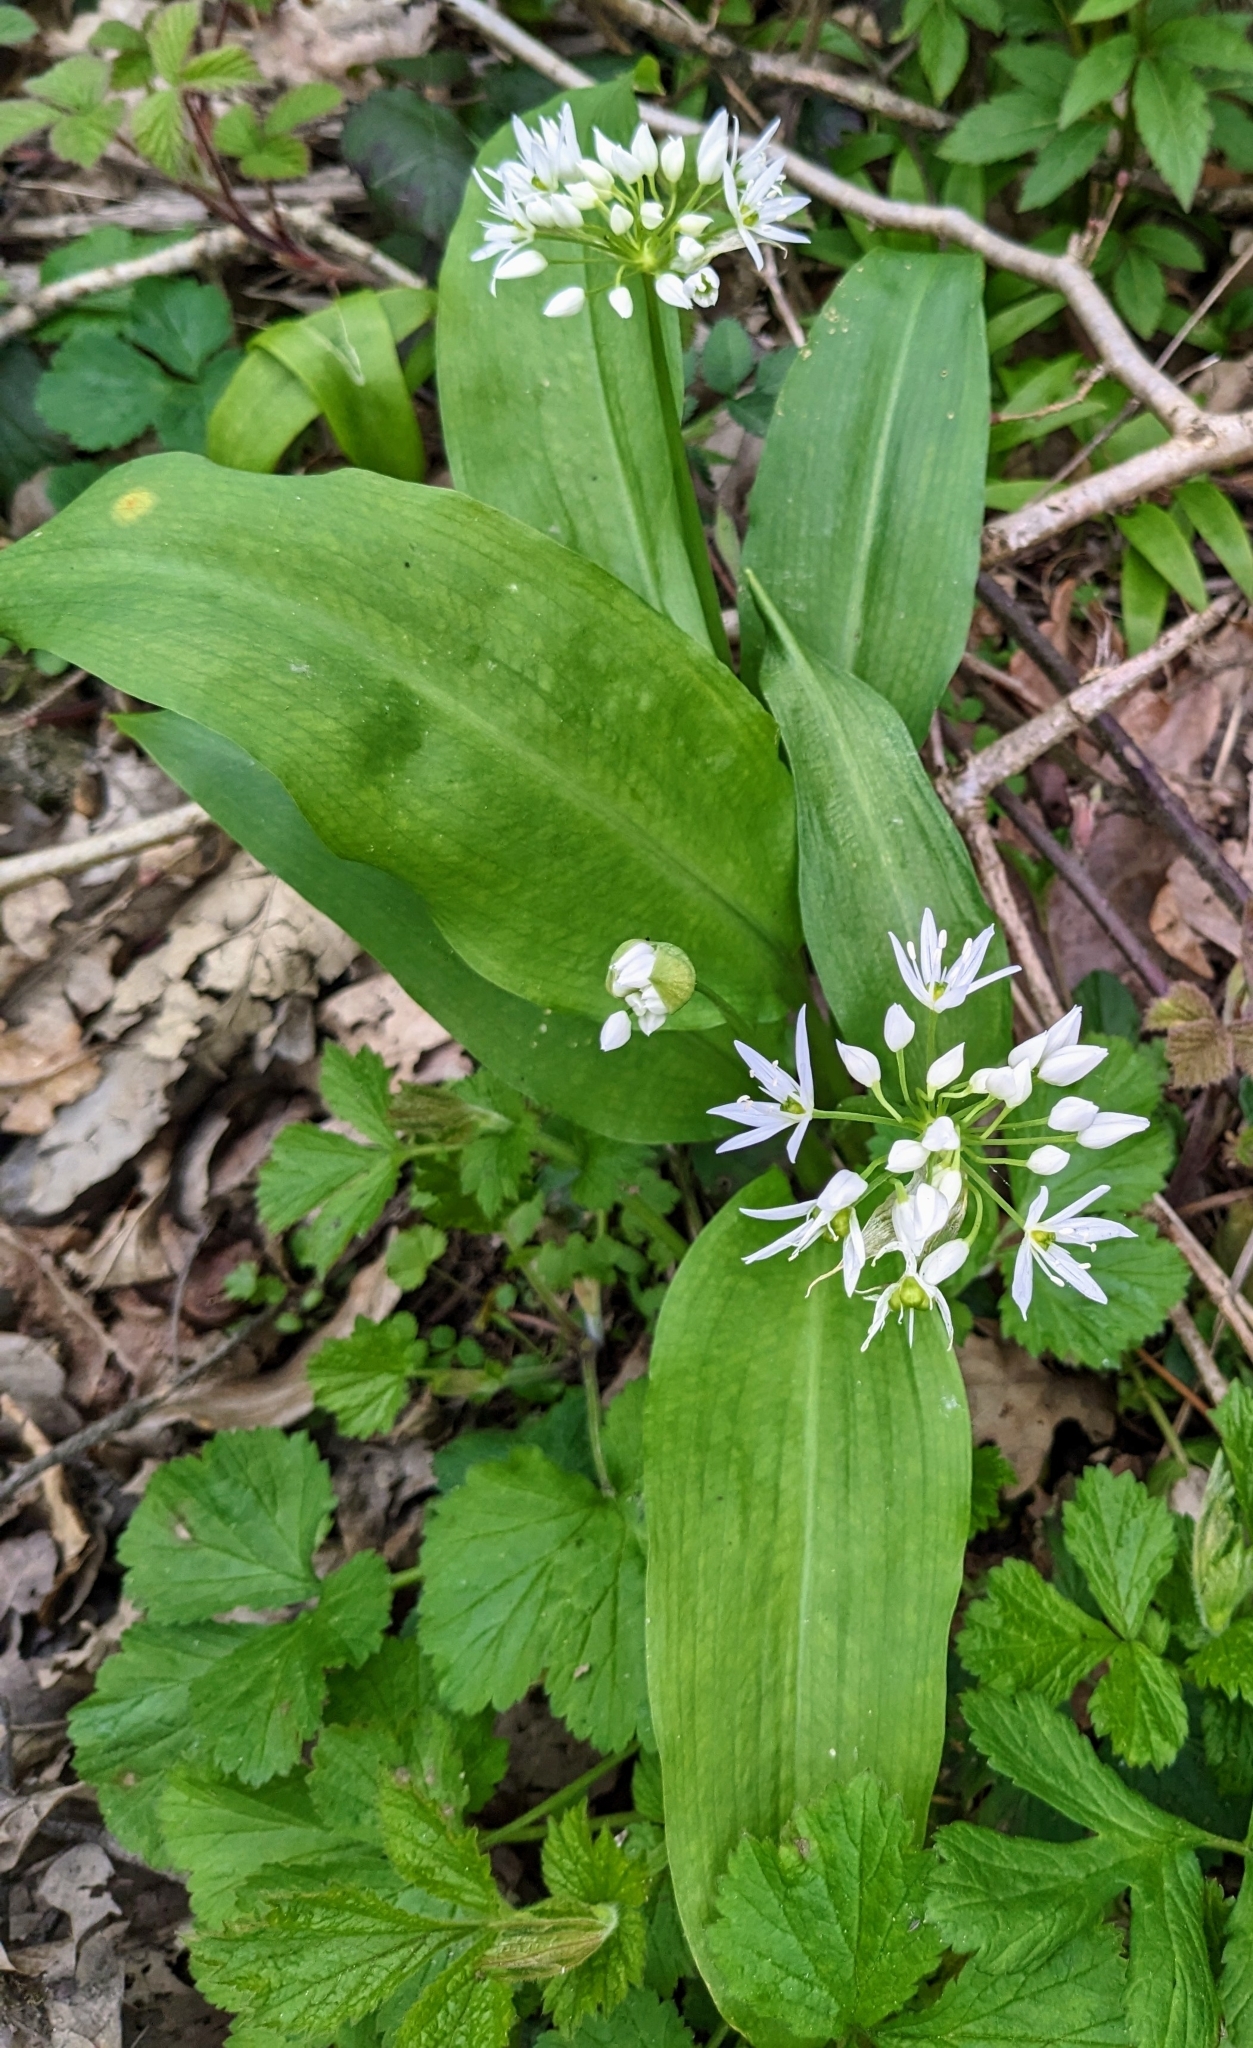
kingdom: Plantae
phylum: Tracheophyta
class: Liliopsida
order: Asparagales
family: Amaryllidaceae
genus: Allium
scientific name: Allium ursinum
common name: Ramsons
